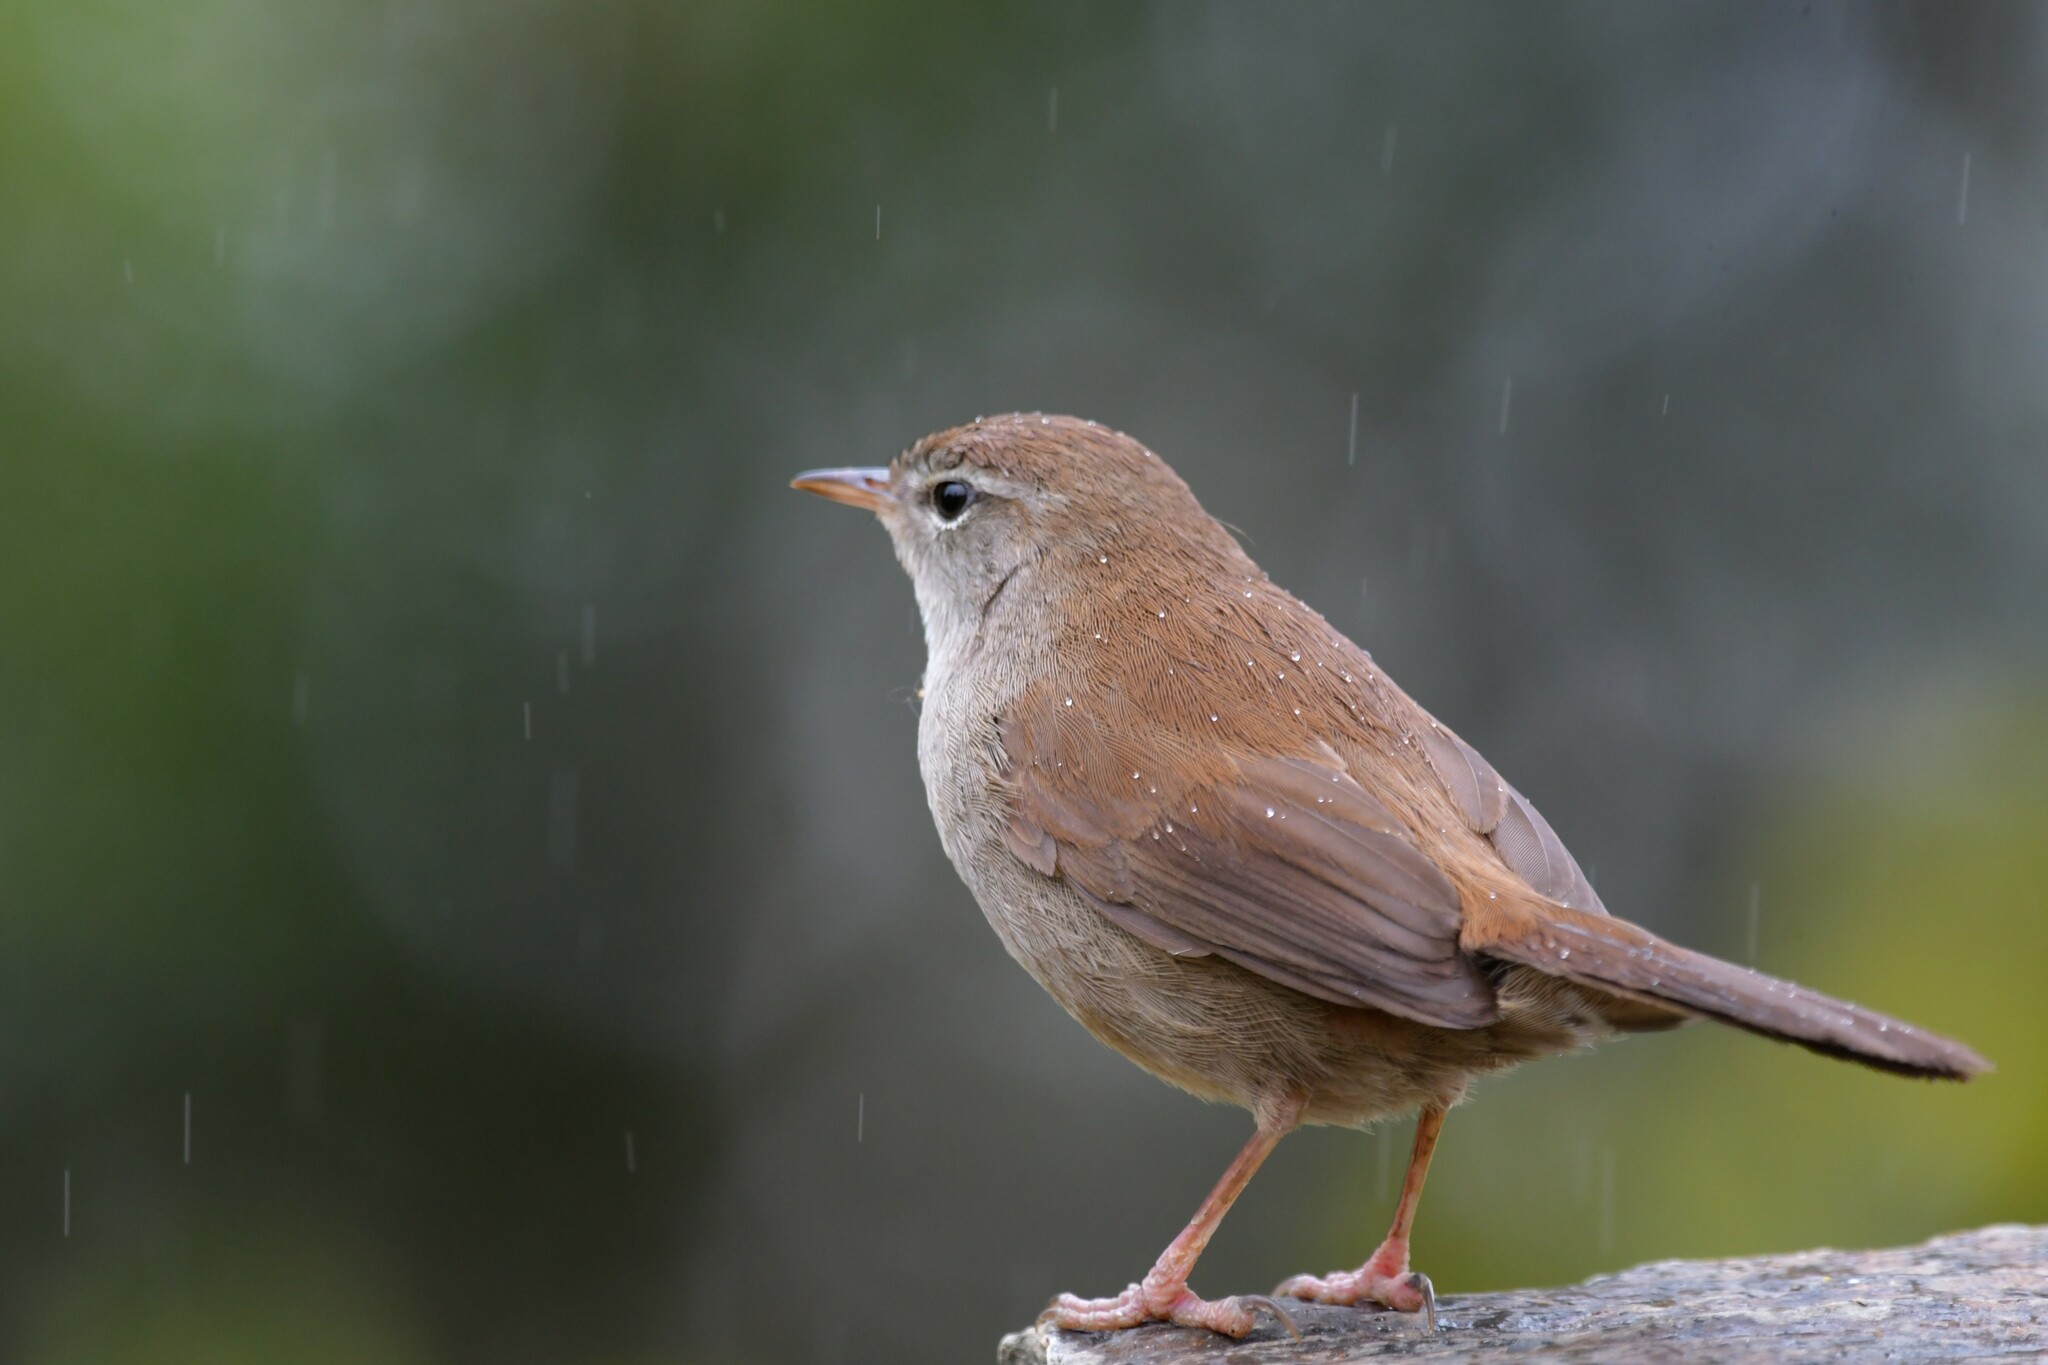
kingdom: Animalia
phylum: Chordata
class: Aves
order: Passeriformes
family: Cettiidae
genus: Cettia
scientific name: Cettia cetti
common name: Cetti's warbler
